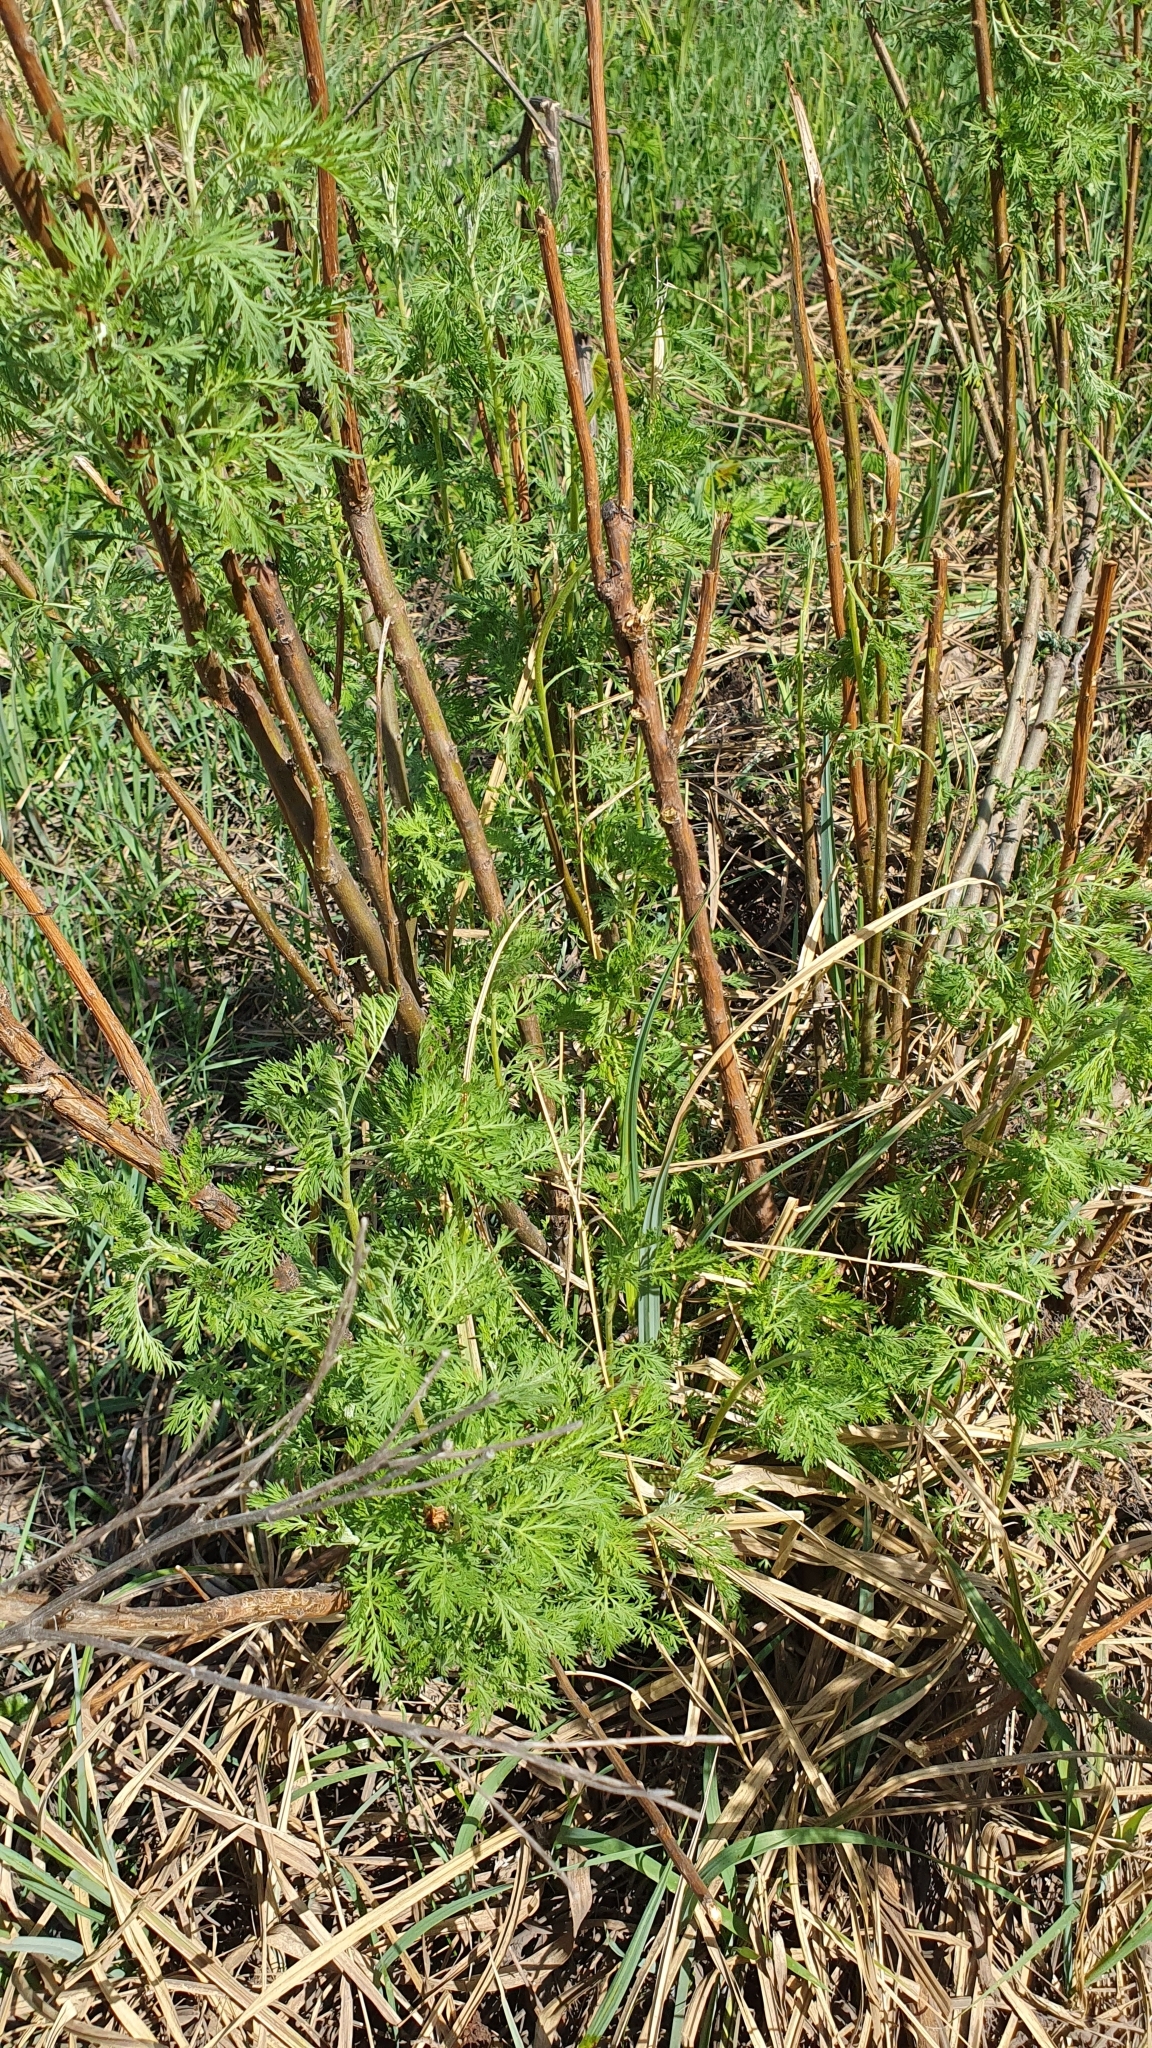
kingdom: Plantae
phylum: Tracheophyta
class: Magnoliopsida
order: Asterales
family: Asteraceae
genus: Artemisia
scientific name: Artemisia abrotanum
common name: Southernwood
